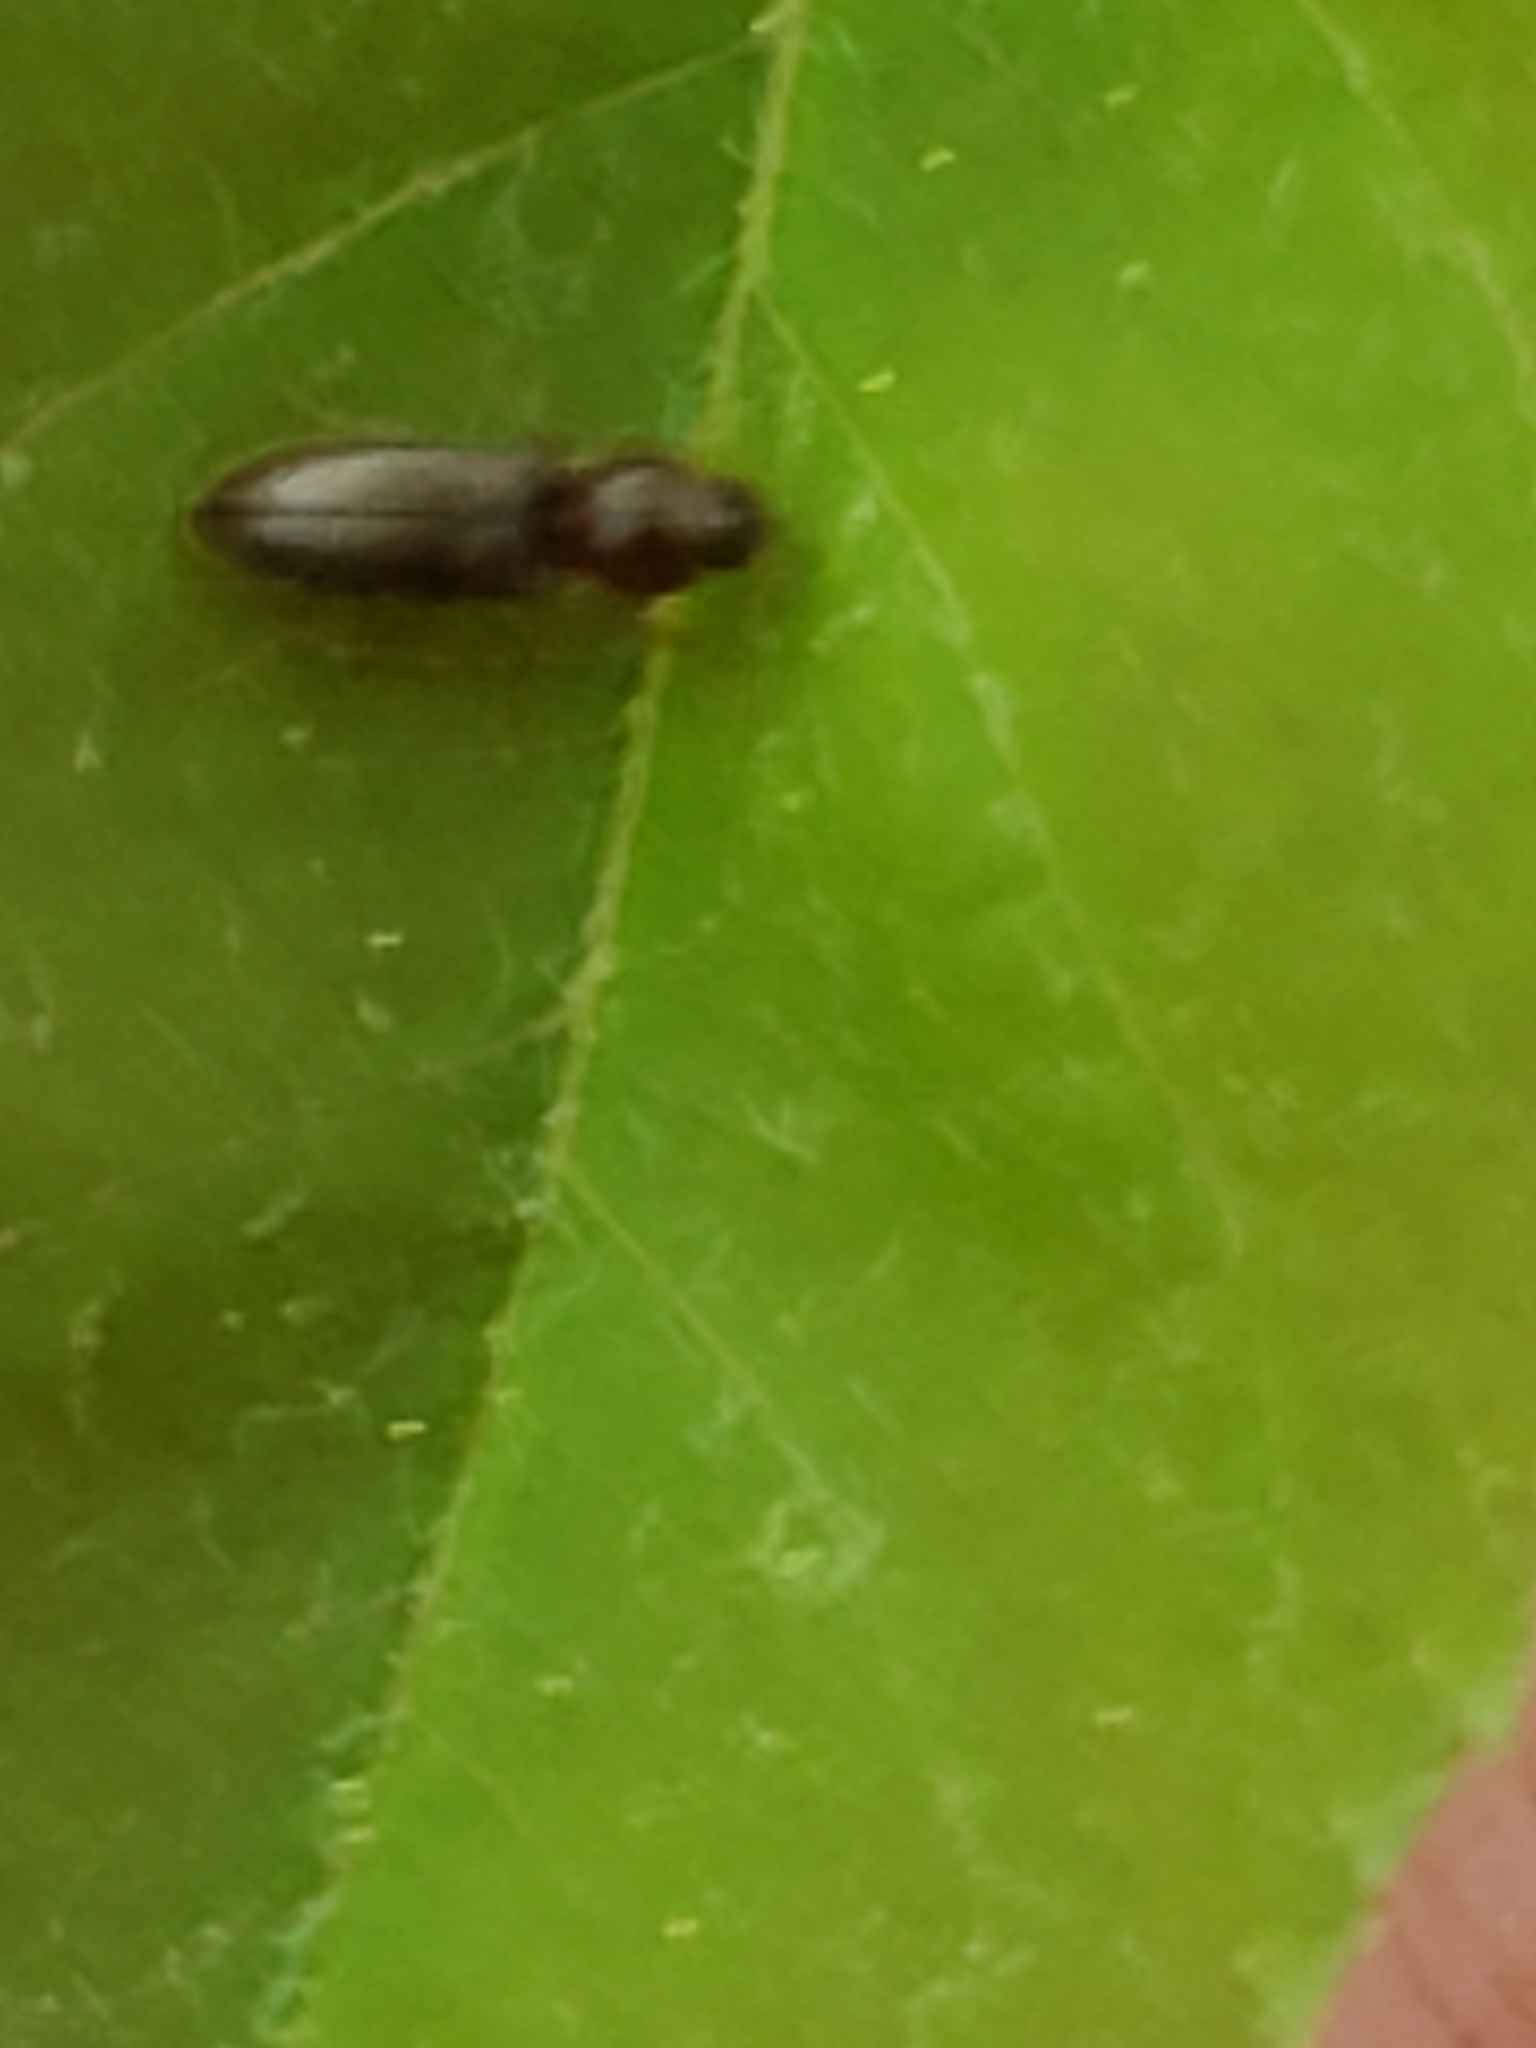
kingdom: Animalia
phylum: Arthropoda
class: Insecta
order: Coleoptera
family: Elateridae
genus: Tetralimonius
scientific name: Tetralimonius
